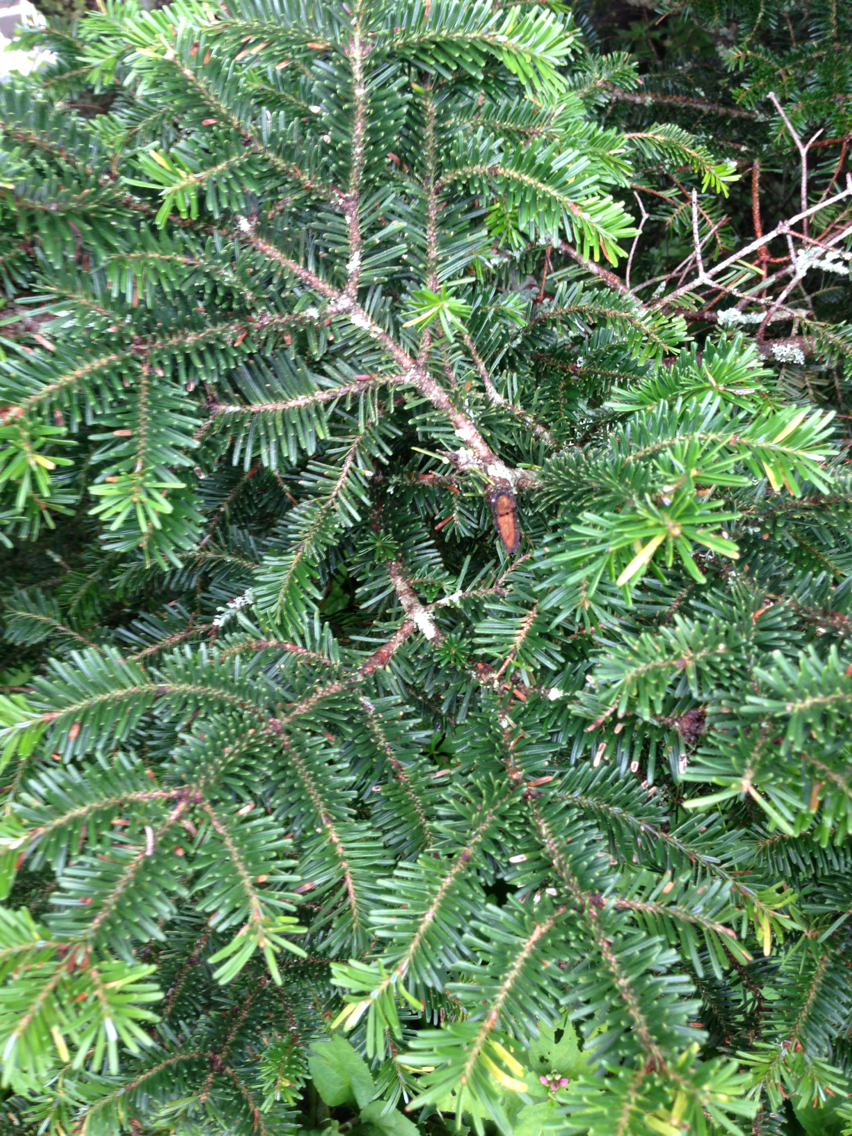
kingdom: Plantae
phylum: Tracheophyta
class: Pinopsida
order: Pinales
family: Pinaceae
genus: Abies
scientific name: Abies fraseri
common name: Fraser fir
